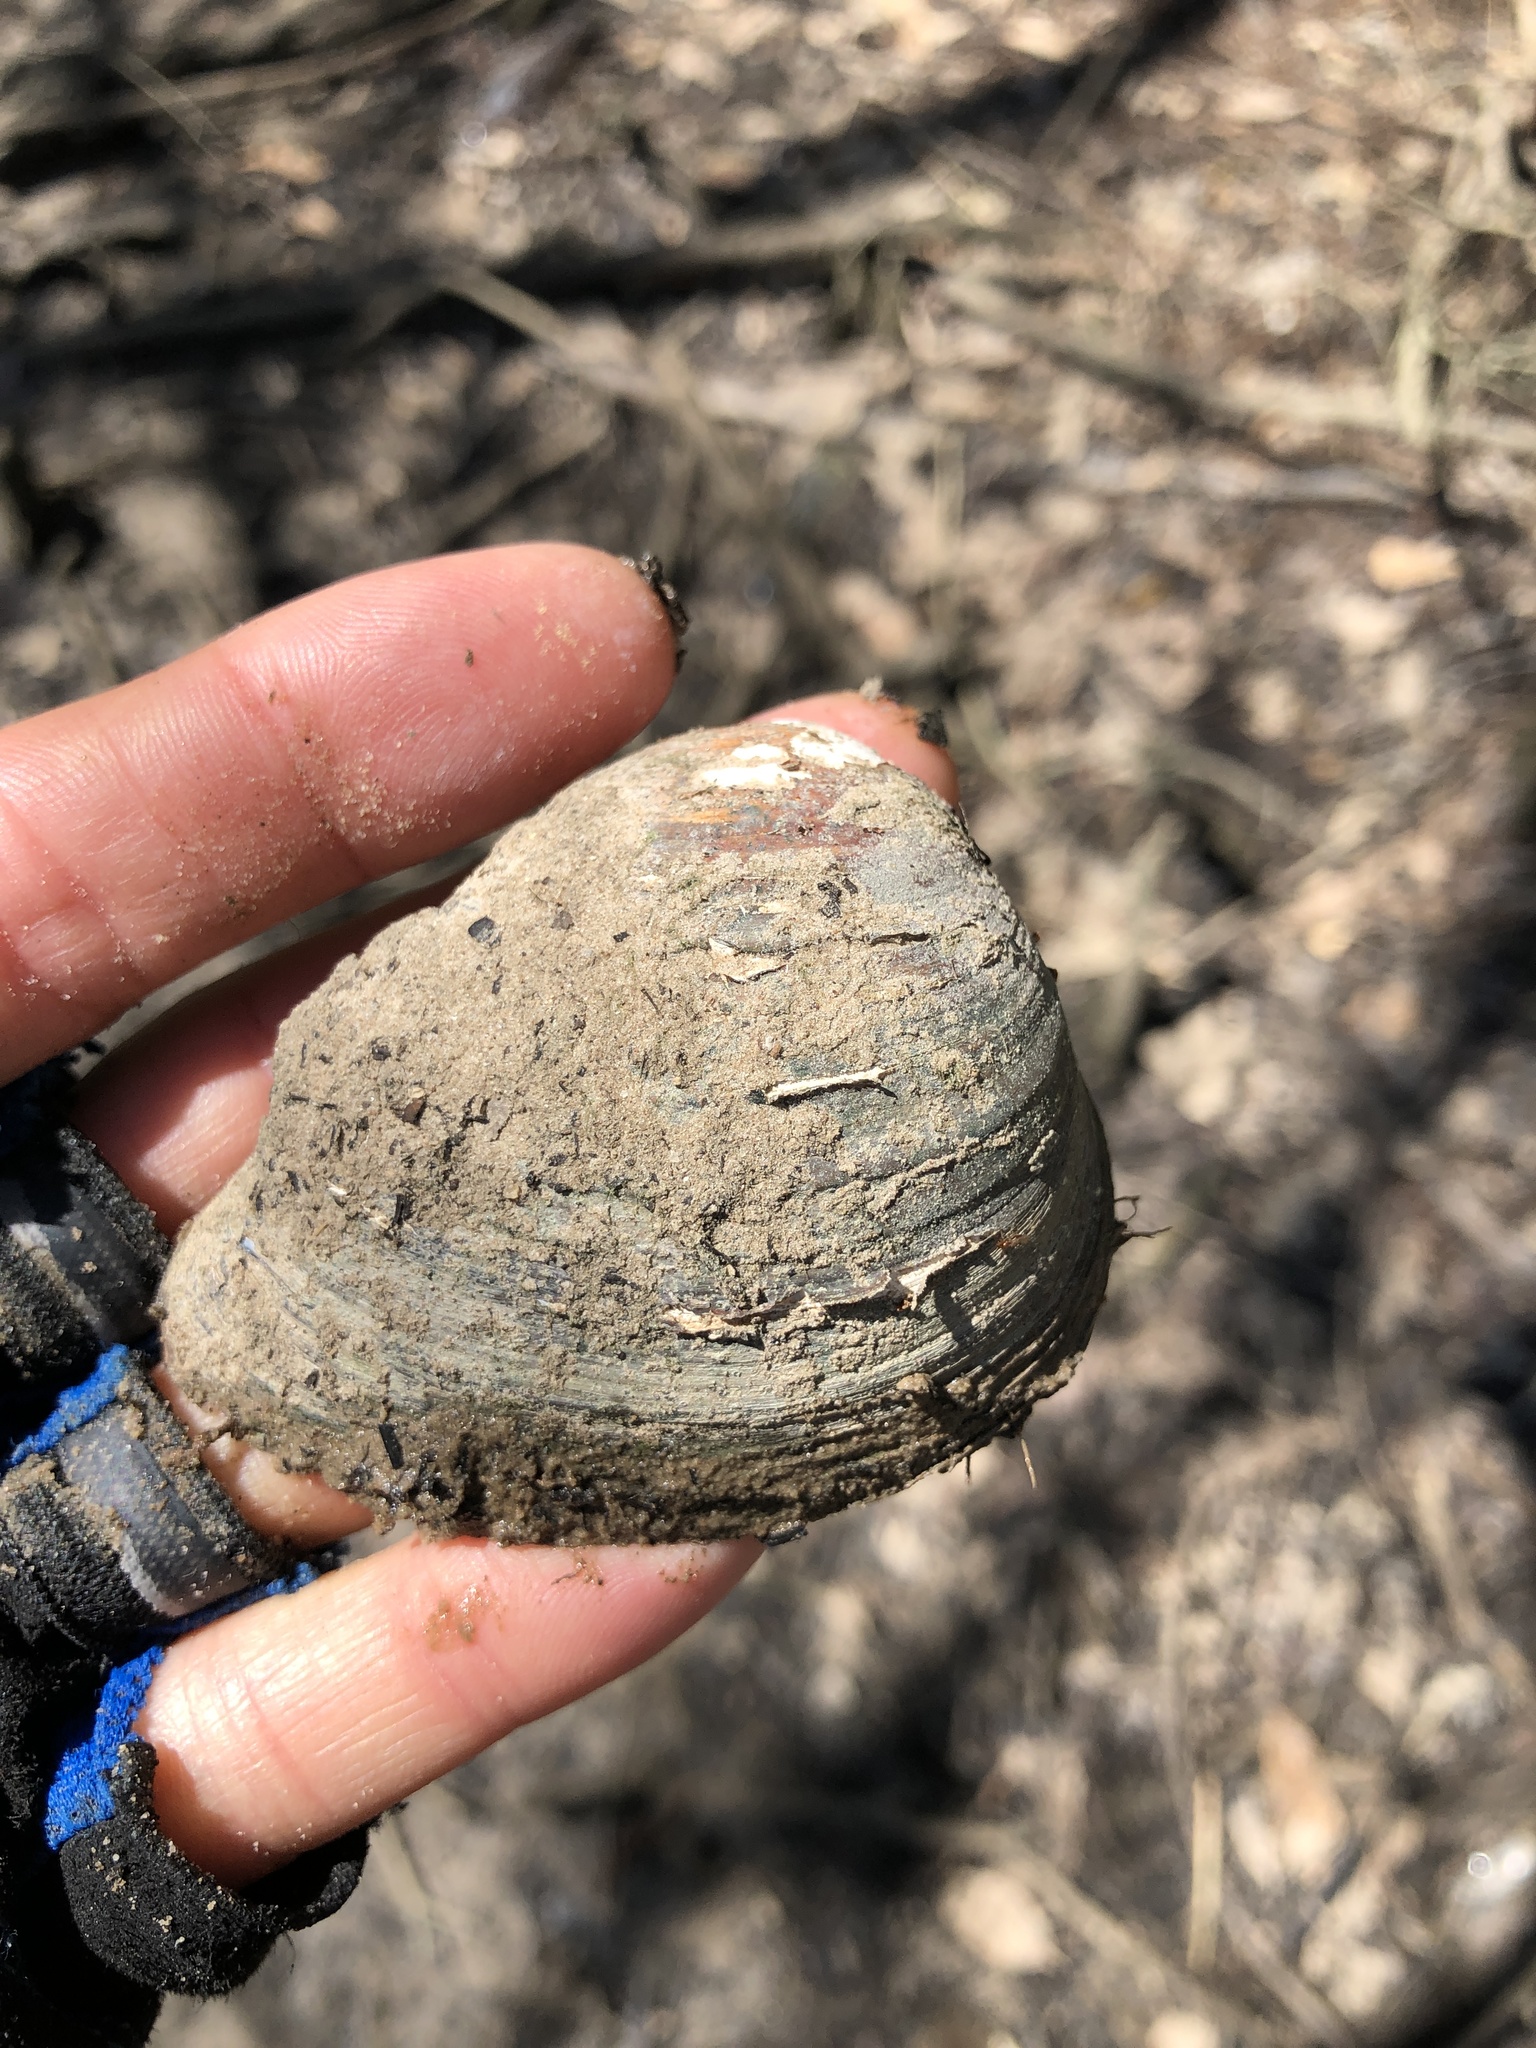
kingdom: Animalia
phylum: Mollusca
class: Bivalvia
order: Venerida
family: Mactridae
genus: Rangia
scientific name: Rangia cuneata
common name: Atlantic rangia
